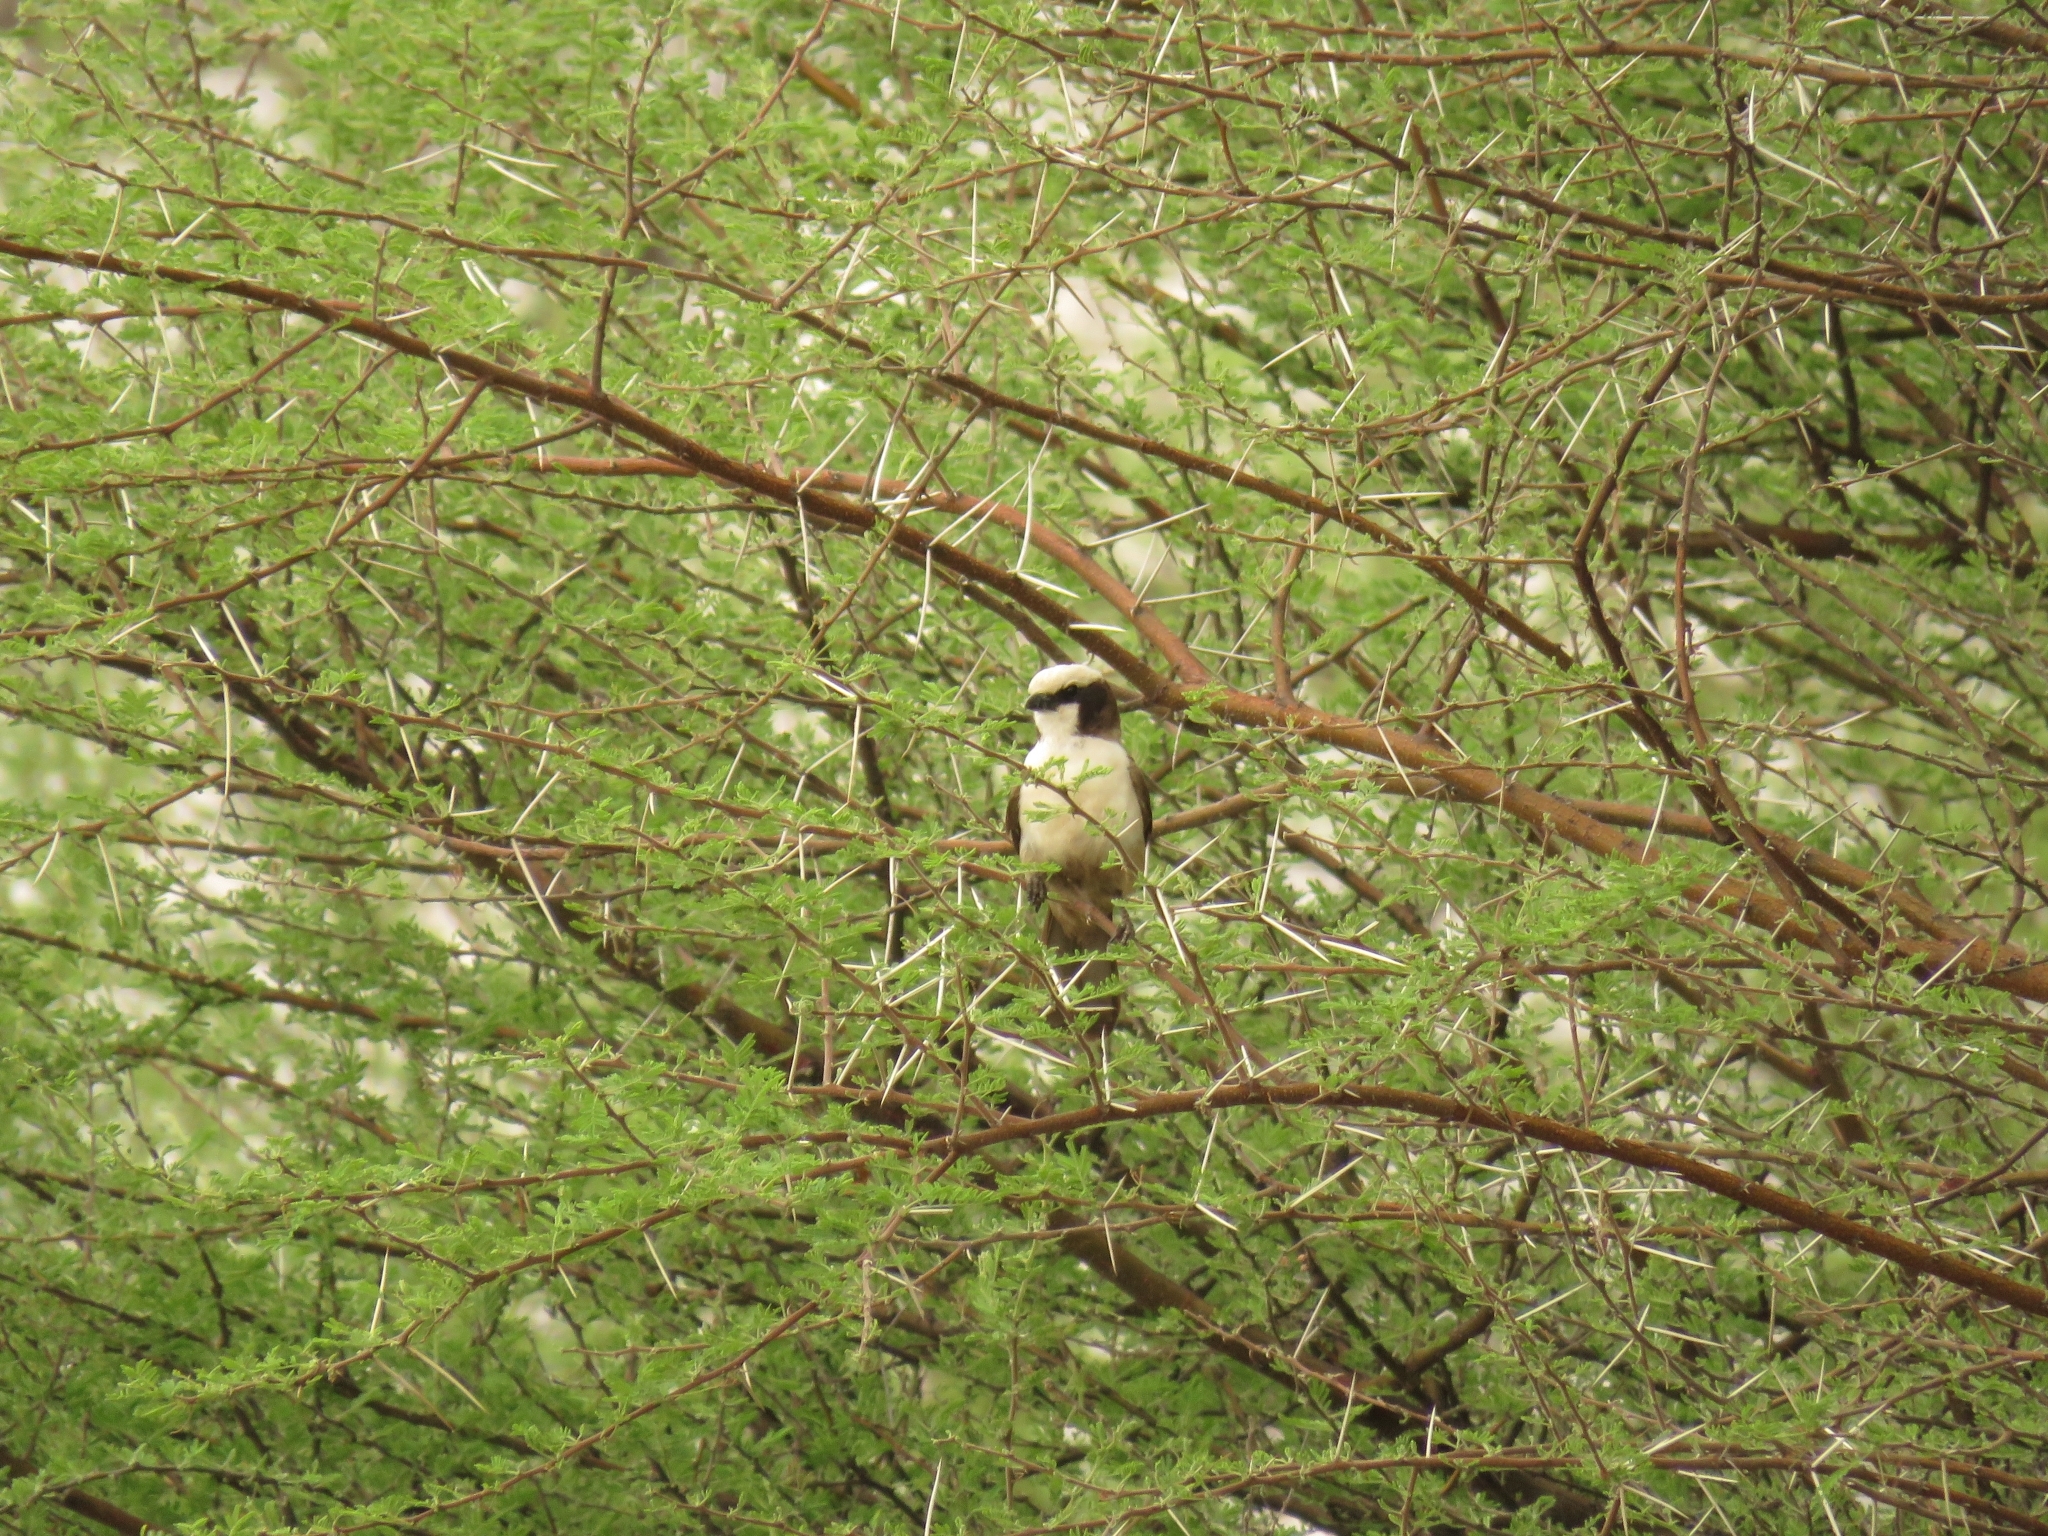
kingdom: Animalia
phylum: Chordata
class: Aves
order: Passeriformes
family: Laniidae
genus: Eurocephalus
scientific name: Eurocephalus anguitimens
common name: Southern white-crowned shrike
